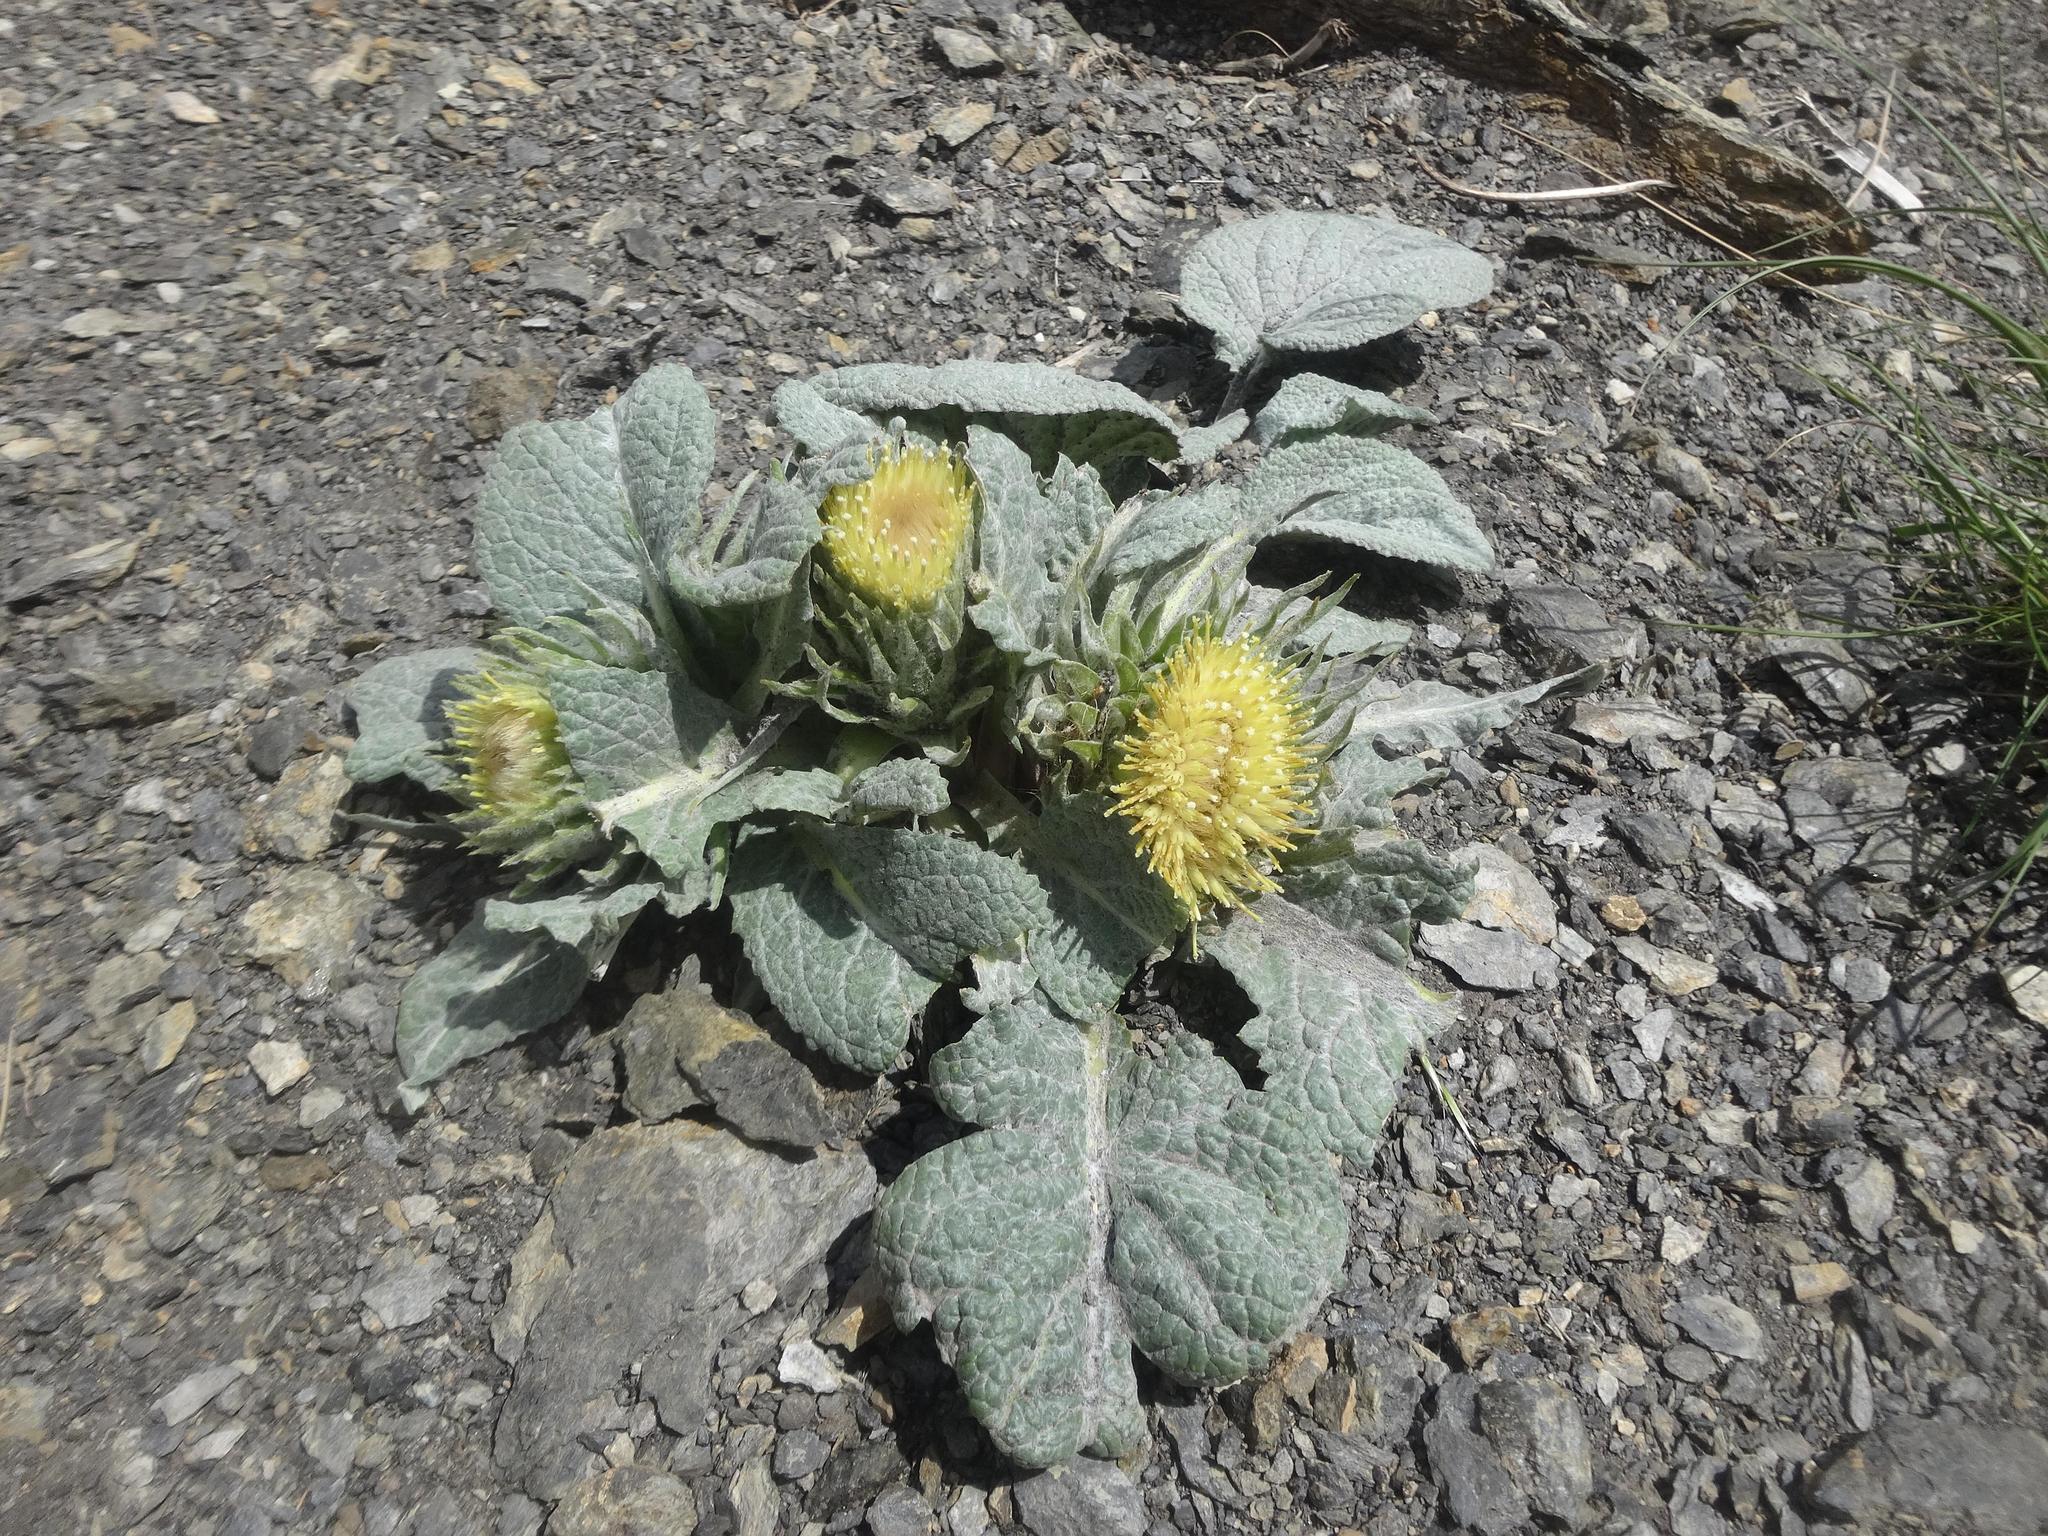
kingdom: Plantae
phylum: Tracheophyta
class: Magnoliopsida
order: Asterales
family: Asteraceae
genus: Berardia
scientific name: Berardia lanuginosa
